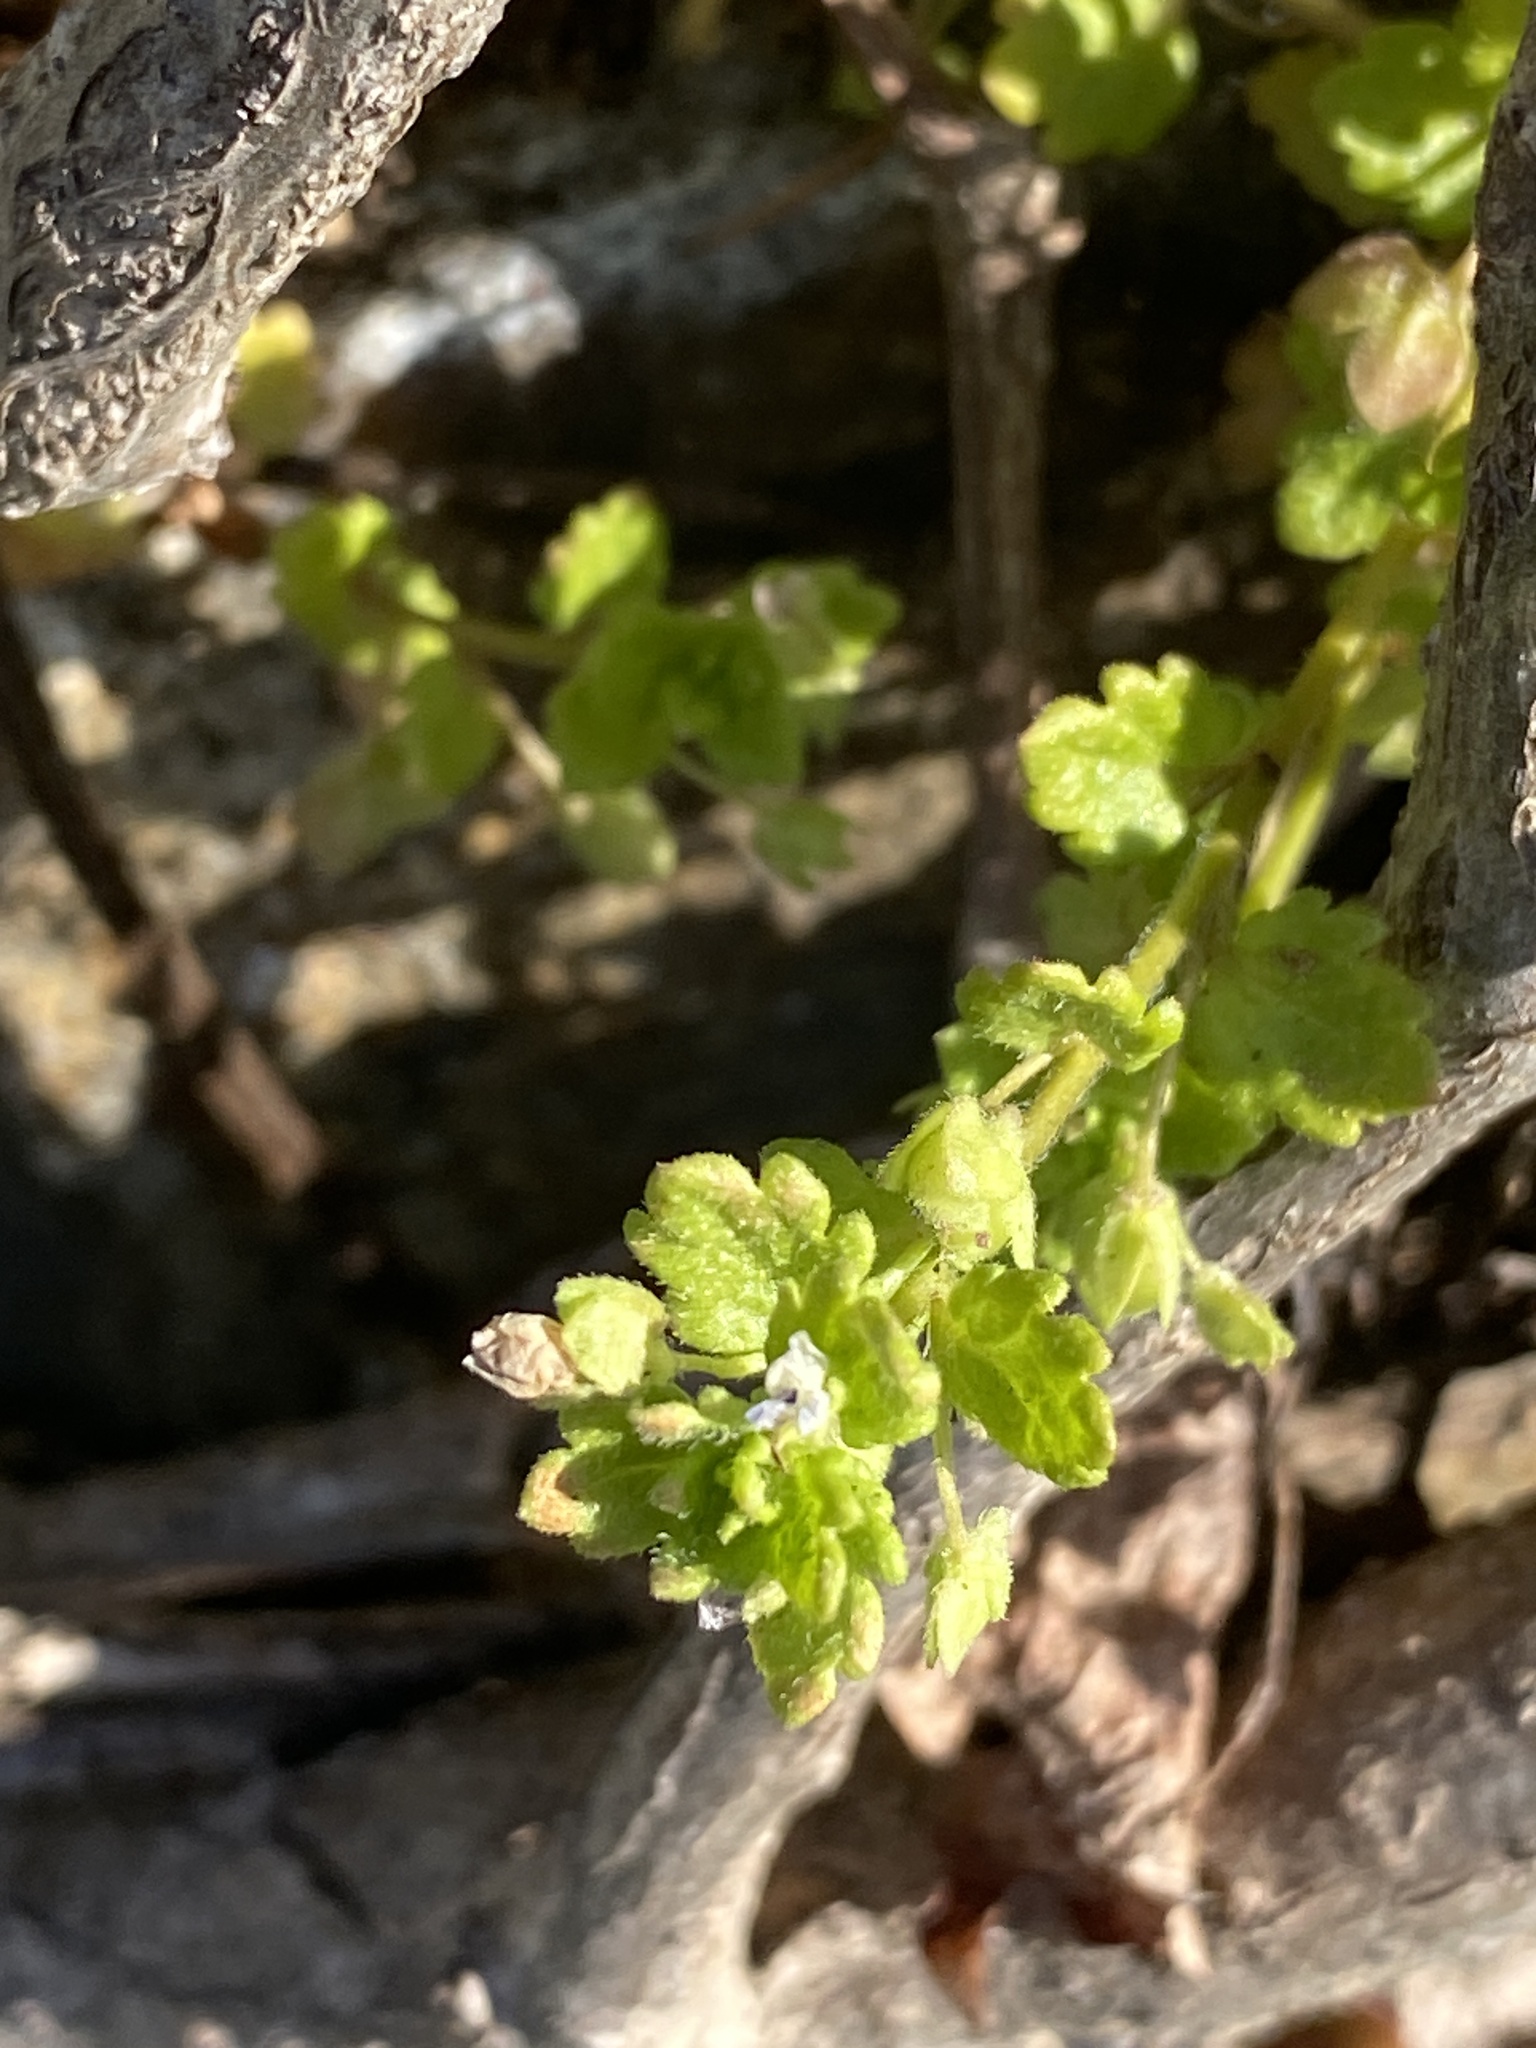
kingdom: Plantae
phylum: Tracheophyta
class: Magnoliopsida
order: Lamiales
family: Plantaginaceae
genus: Veronica
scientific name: Veronica polita
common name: Grey field-speedwell
